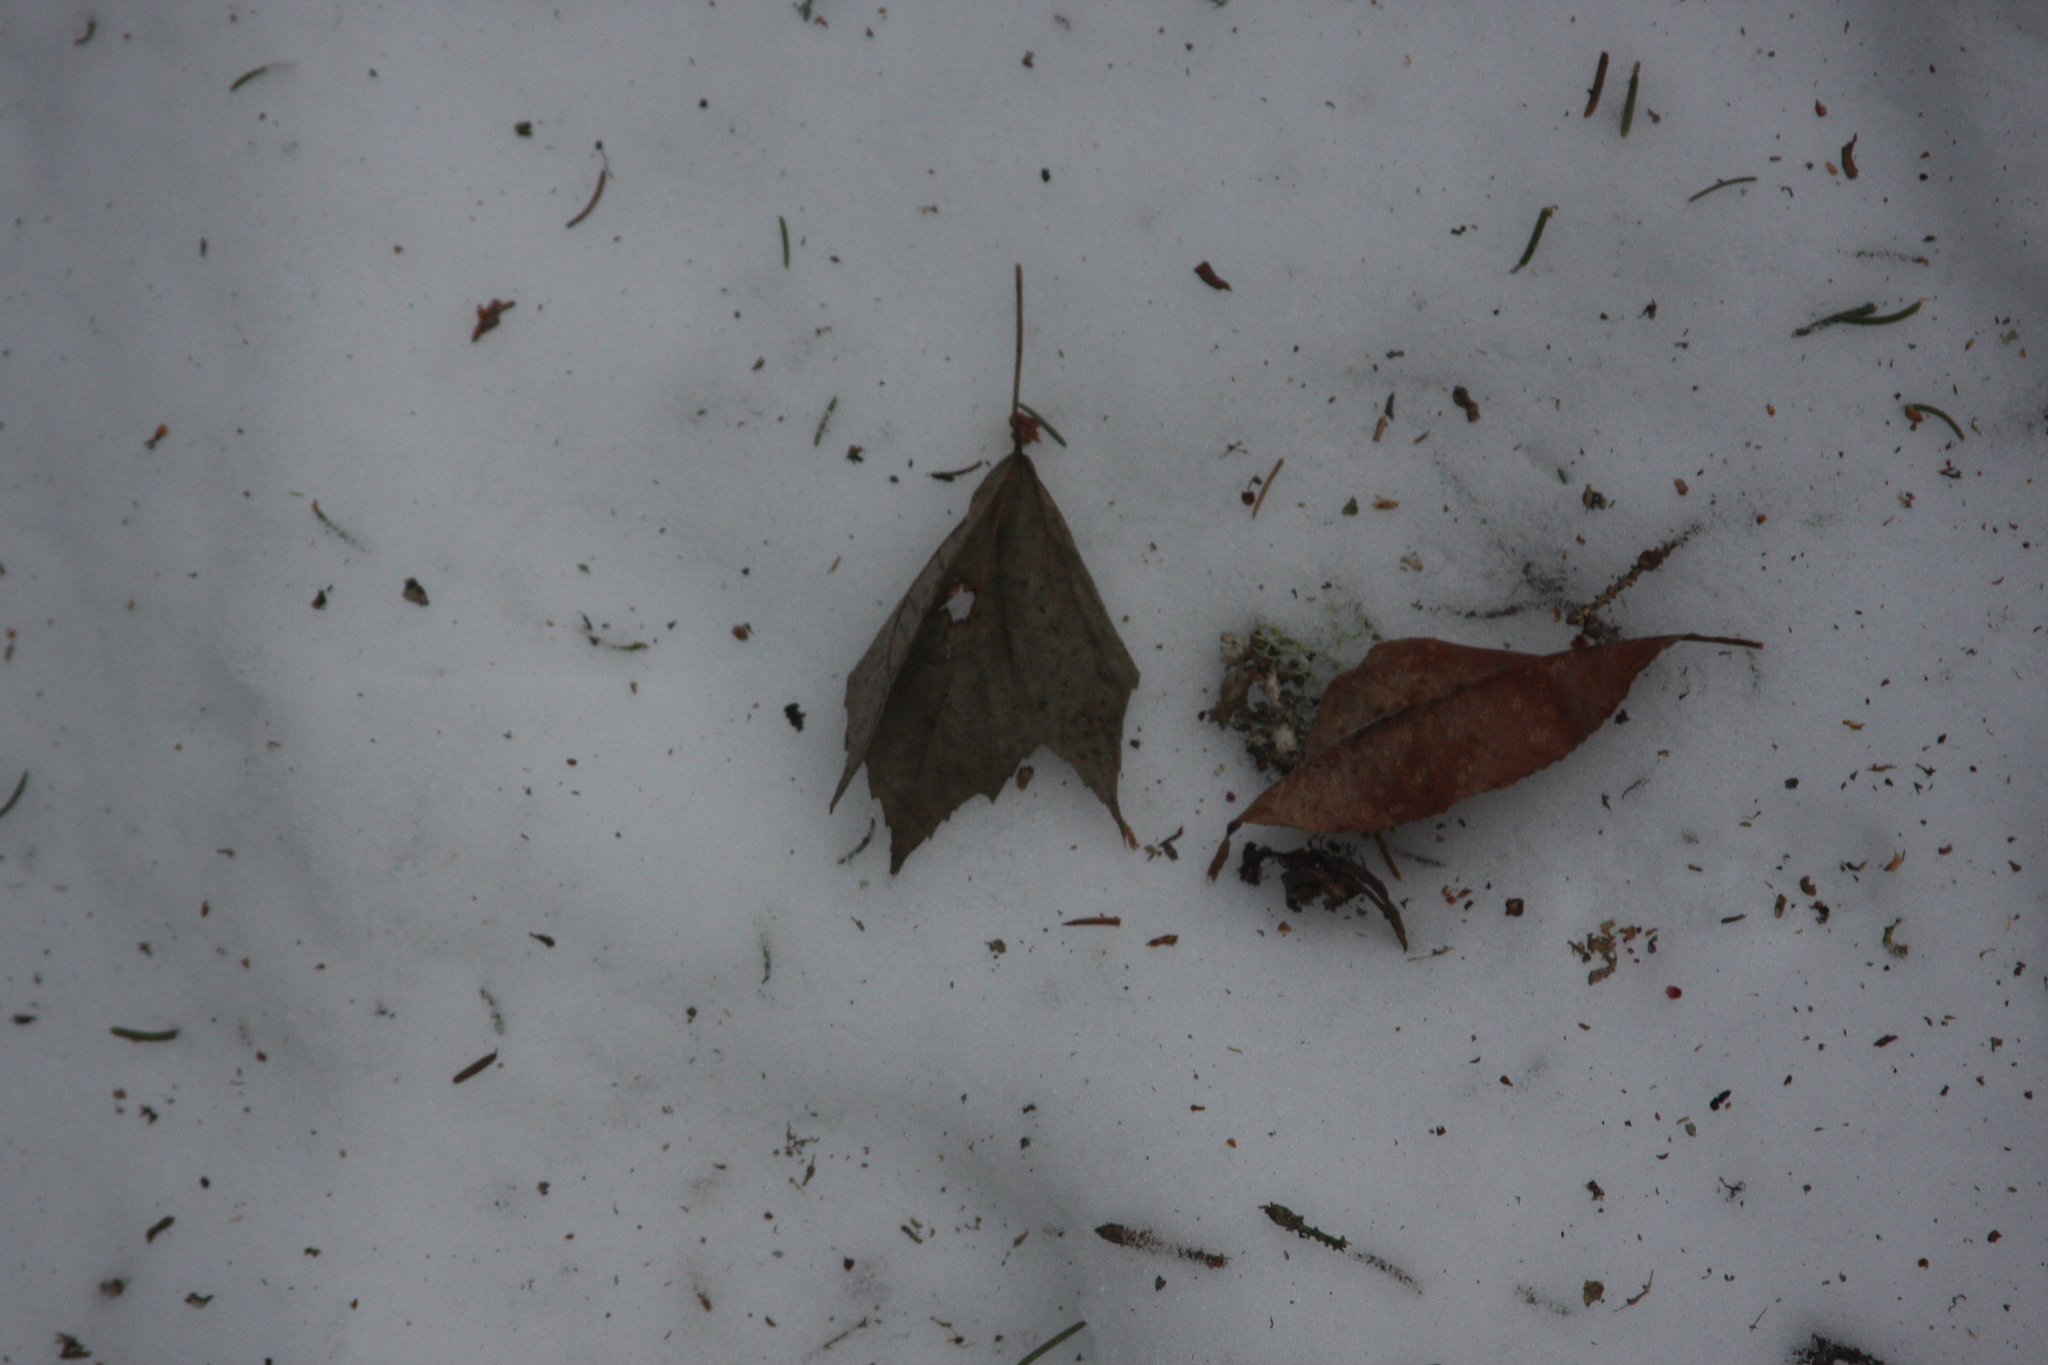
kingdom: Plantae
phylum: Tracheophyta
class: Magnoliopsida
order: Sapindales
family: Sapindaceae
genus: Acer
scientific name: Acer rubrum
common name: Red maple
